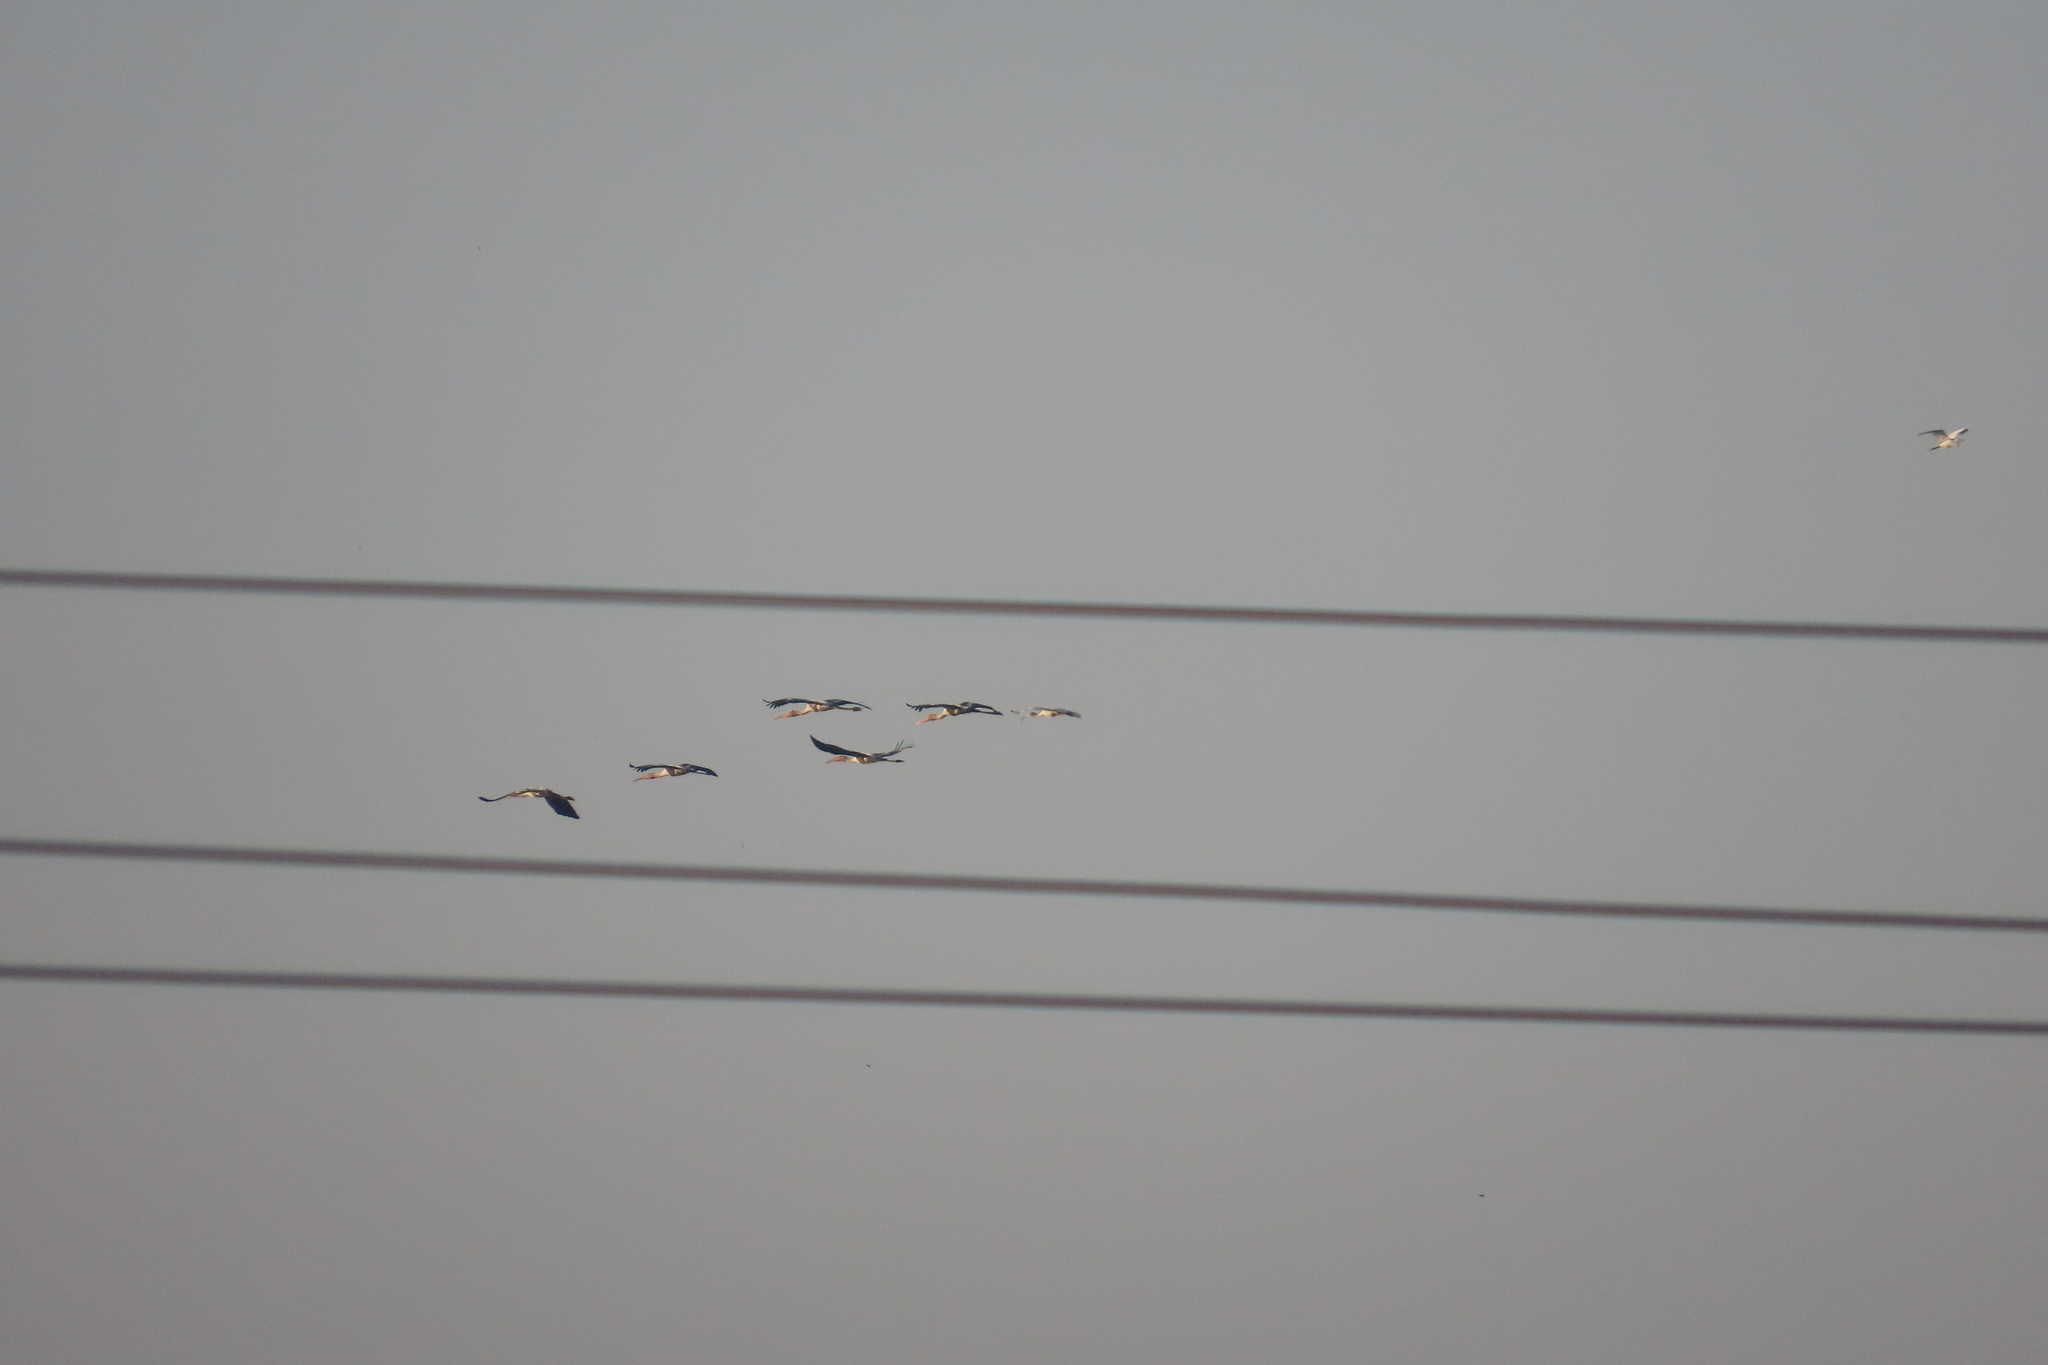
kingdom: Animalia
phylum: Chordata
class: Aves
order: Ciconiiformes
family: Ciconiidae
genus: Mycteria
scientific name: Mycteria leucocephala
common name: Painted stork
